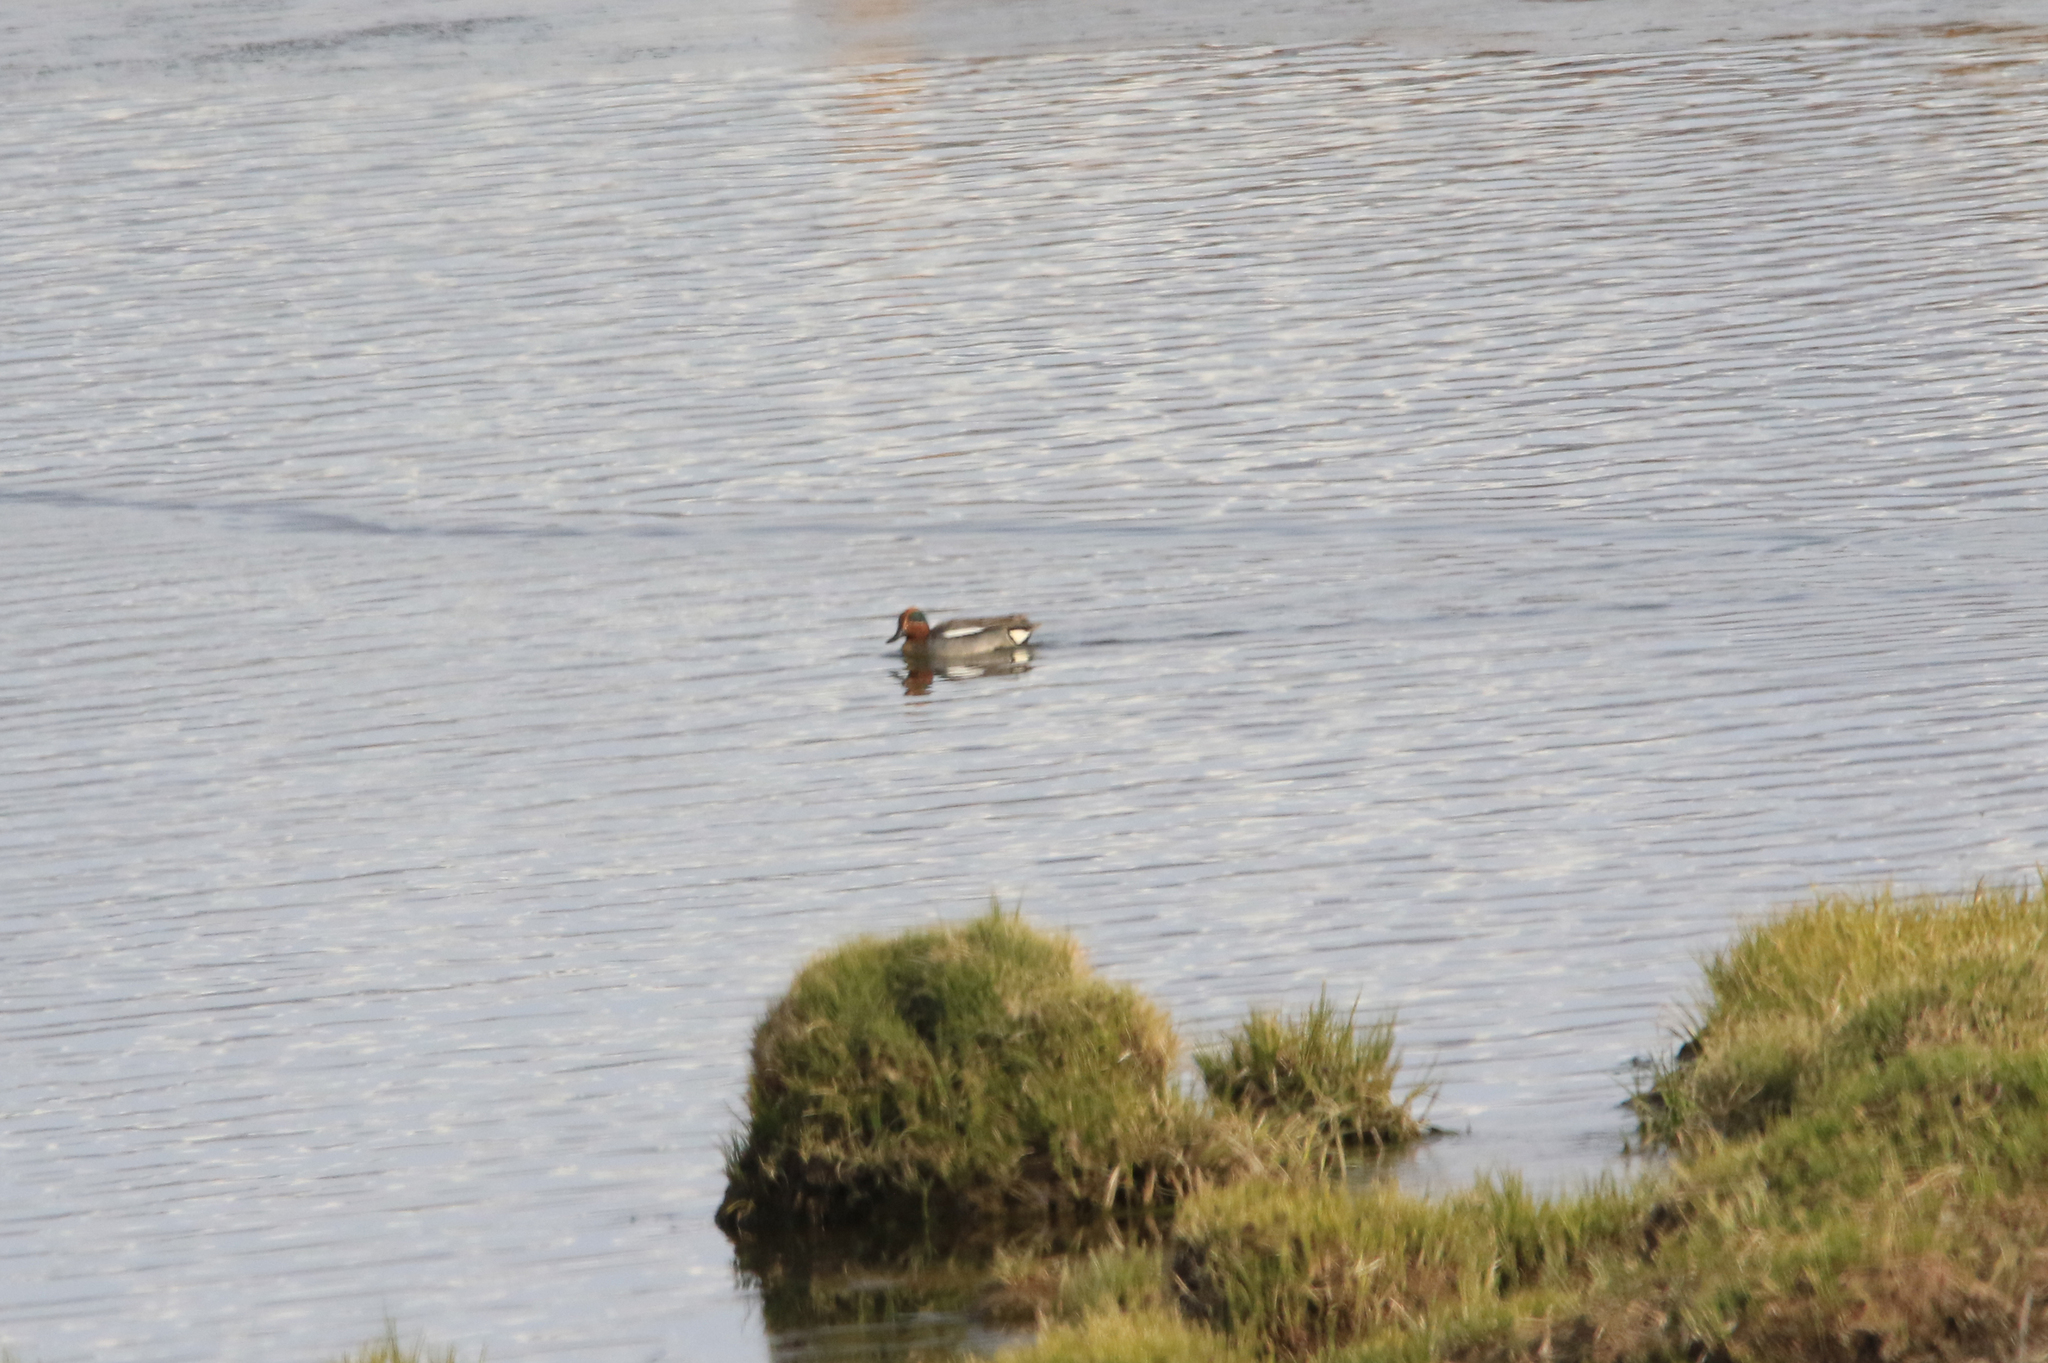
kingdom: Animalia
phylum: Chordata
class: Aves
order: Anseriformes
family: Anatidae
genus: Anas
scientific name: Anas crecca
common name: Eurasian teal
